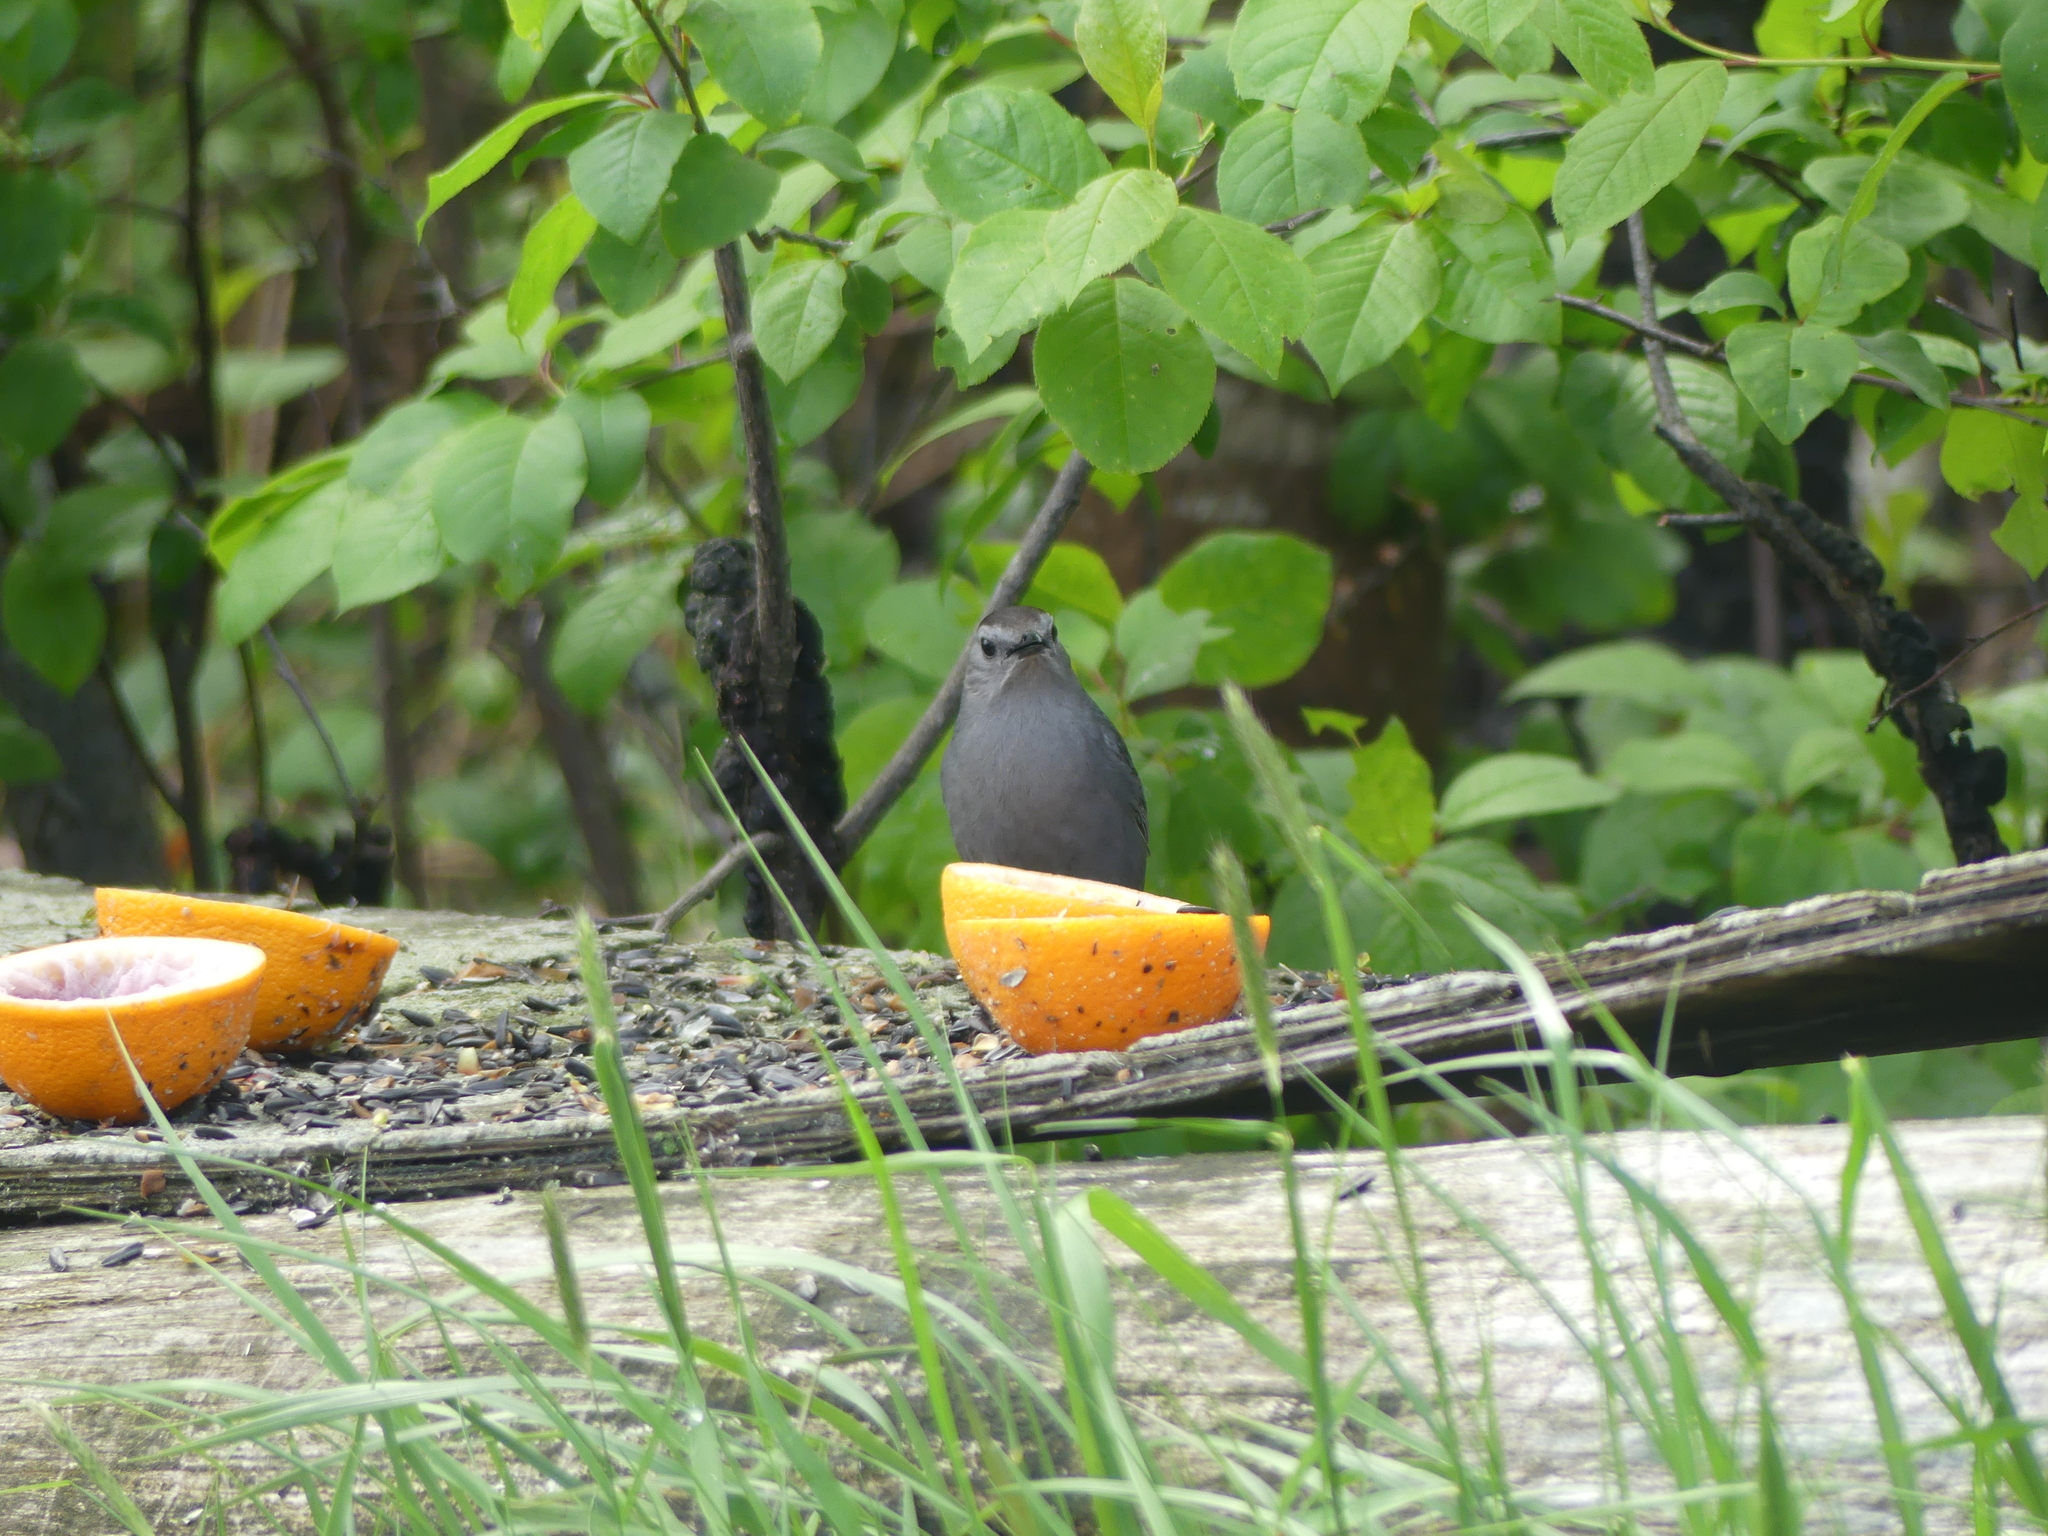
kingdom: Animalia
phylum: Chordata
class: Aves
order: Passeriformes
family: Mimidae
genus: Dumetella
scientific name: Dumetella carolinensis
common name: Gray catbird
